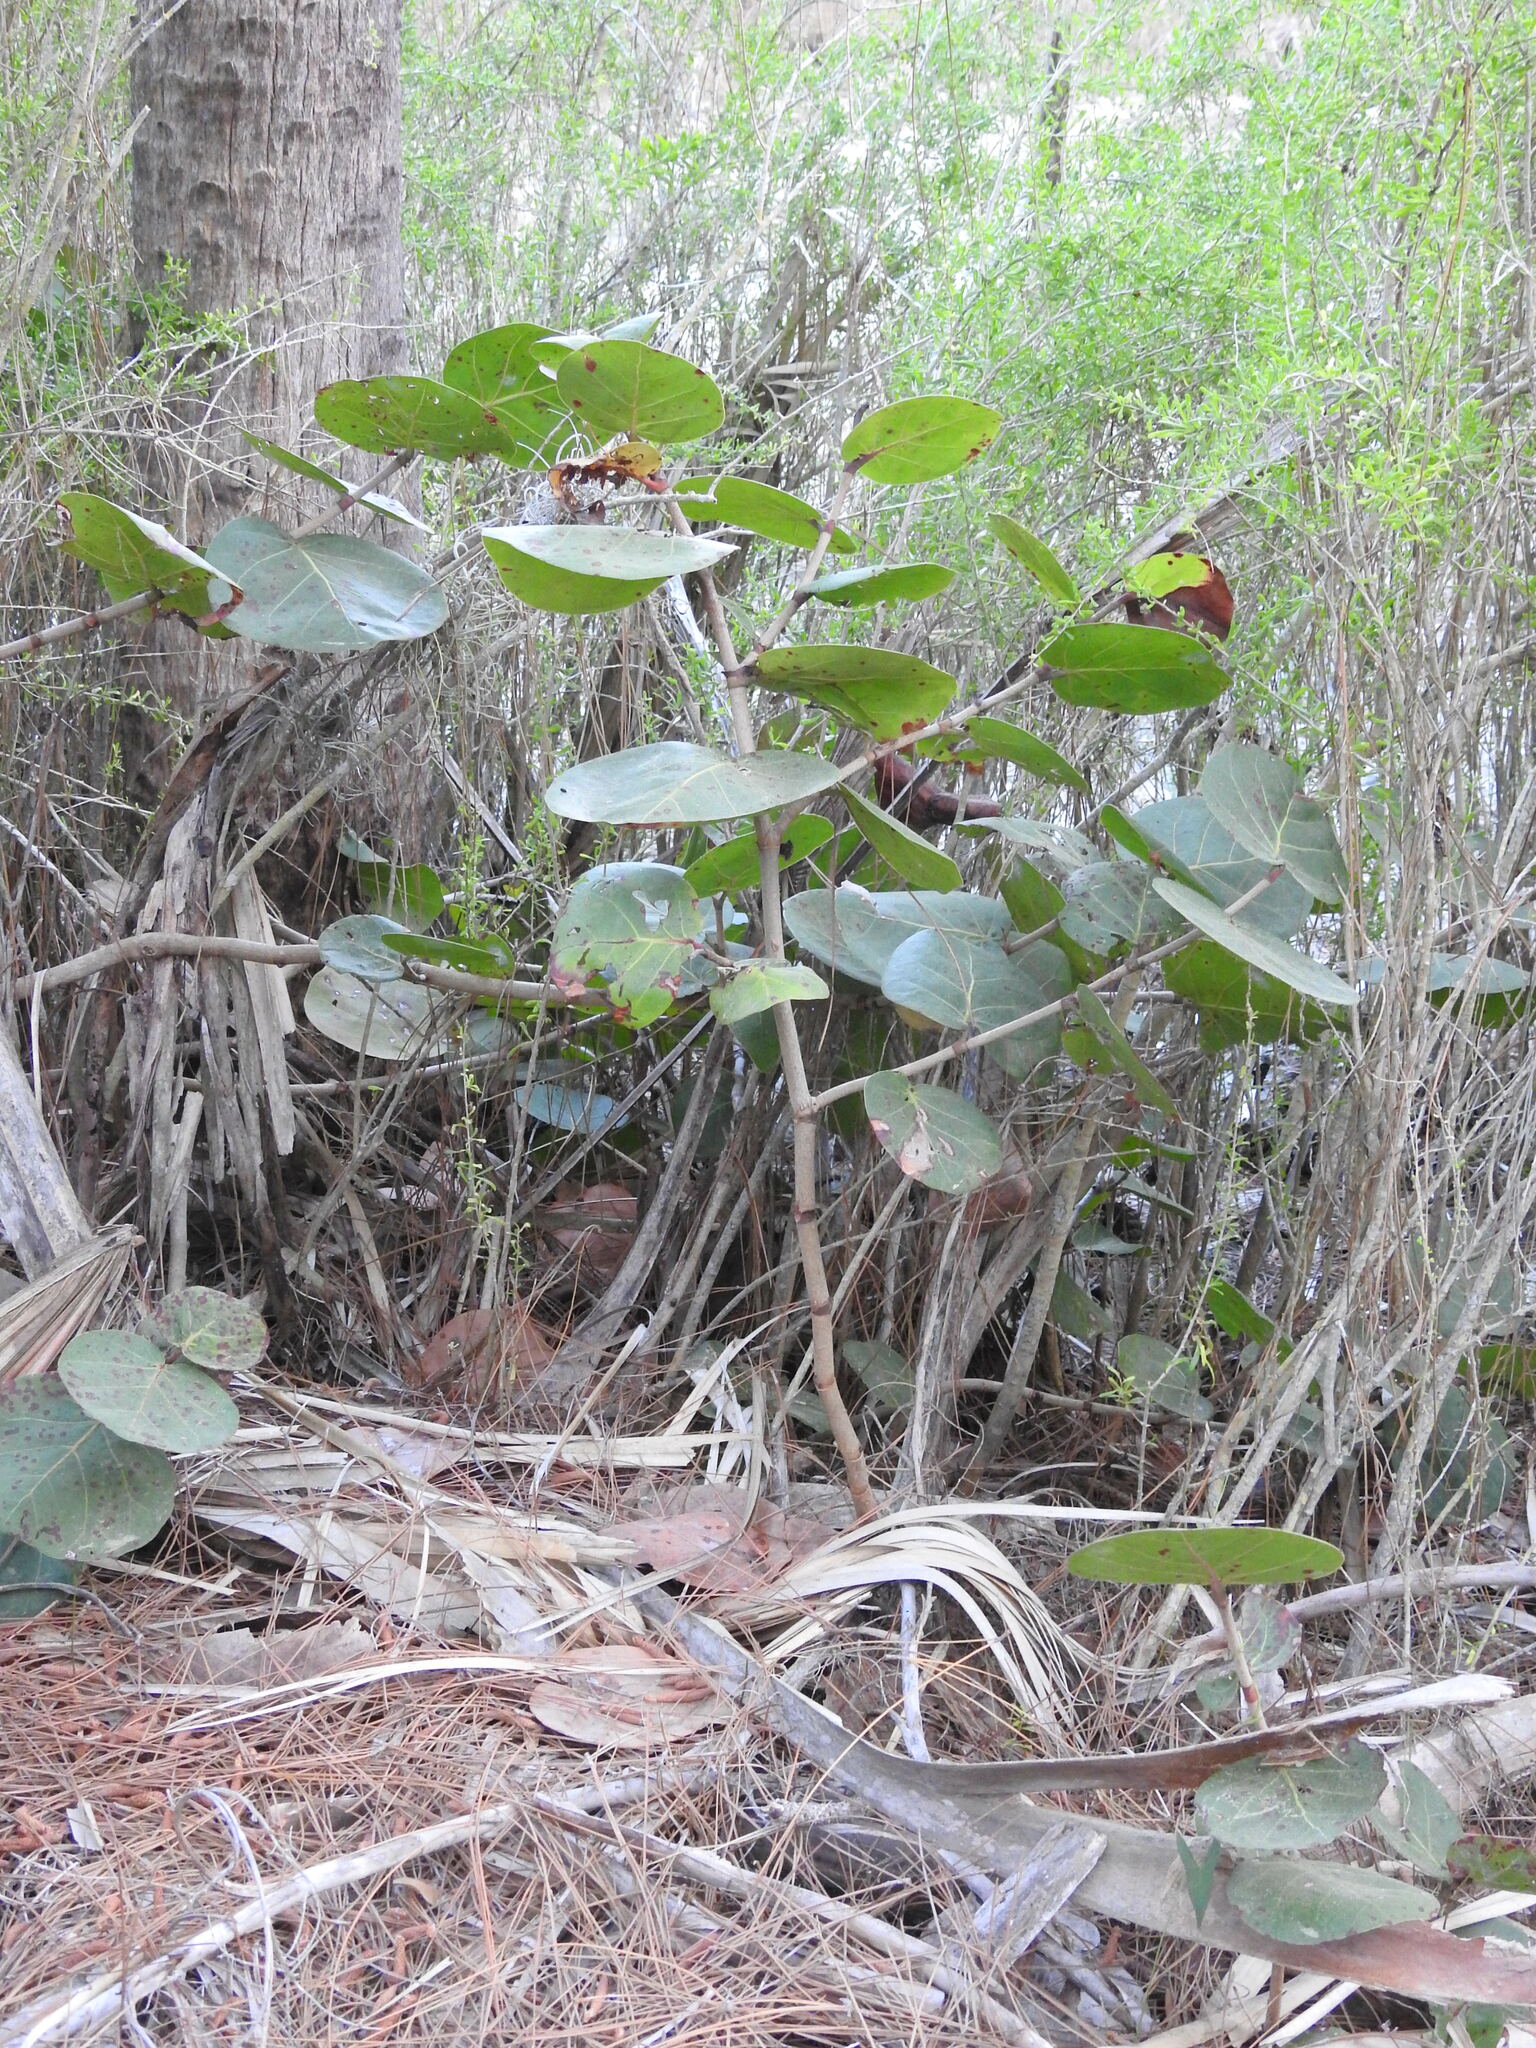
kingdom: Plantae
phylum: Tracheophyta
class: Magnoliopsida
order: Caryophyllales
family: Polygonaceae
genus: Coccoloba
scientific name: Coccoloba uvifera
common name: Seagrape
